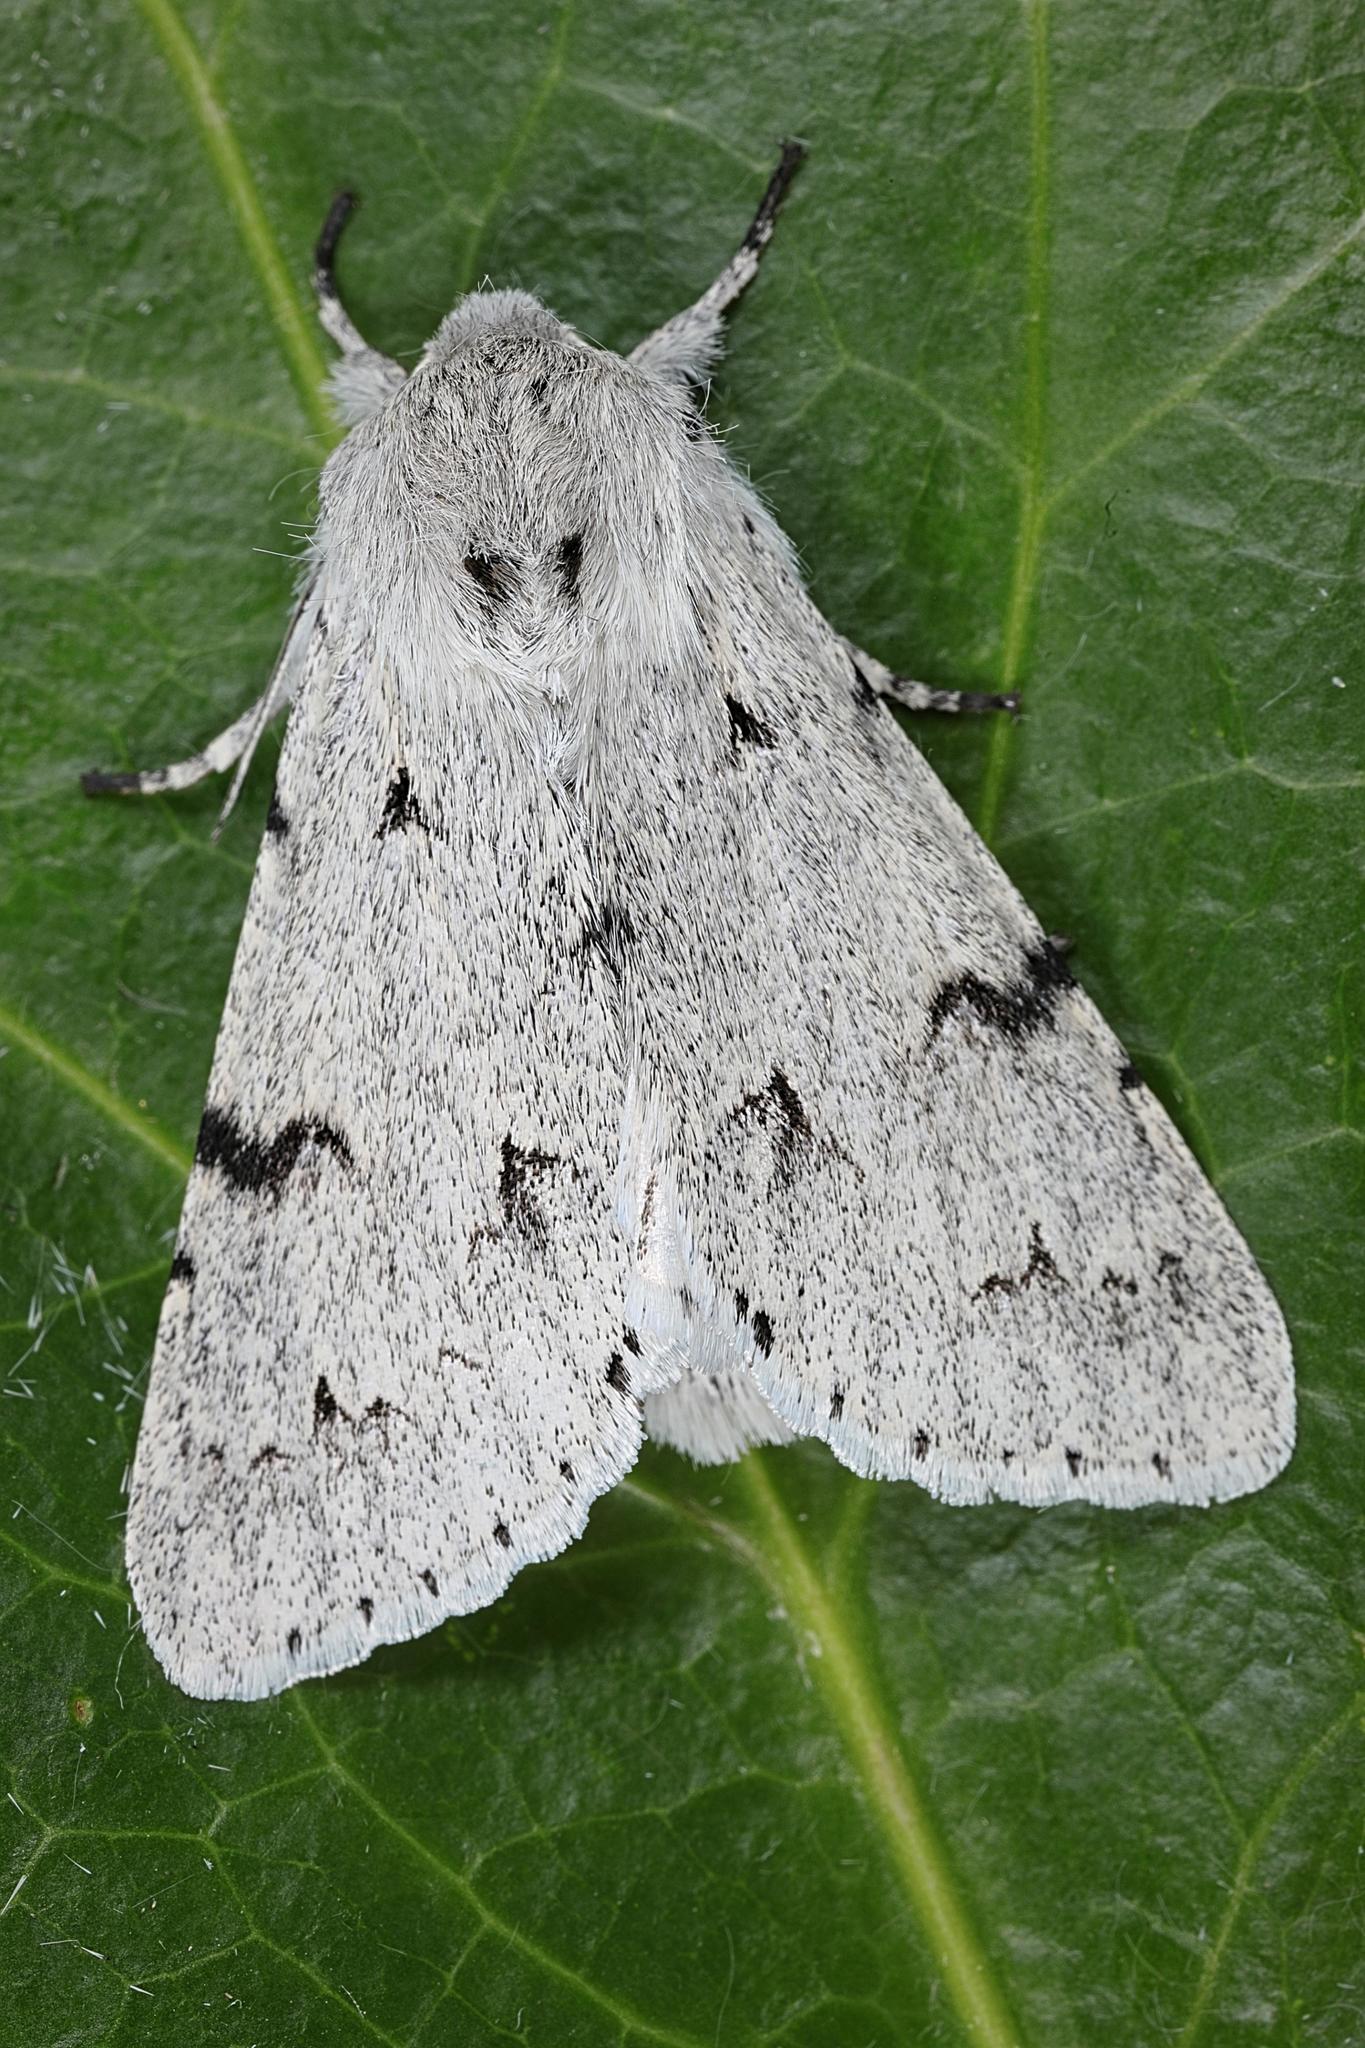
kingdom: Animalia
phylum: Arthropoda
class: Insecta
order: Lepidoptera
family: Noctuidae
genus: Acronicta
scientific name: Acronicta leporina
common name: Miller
